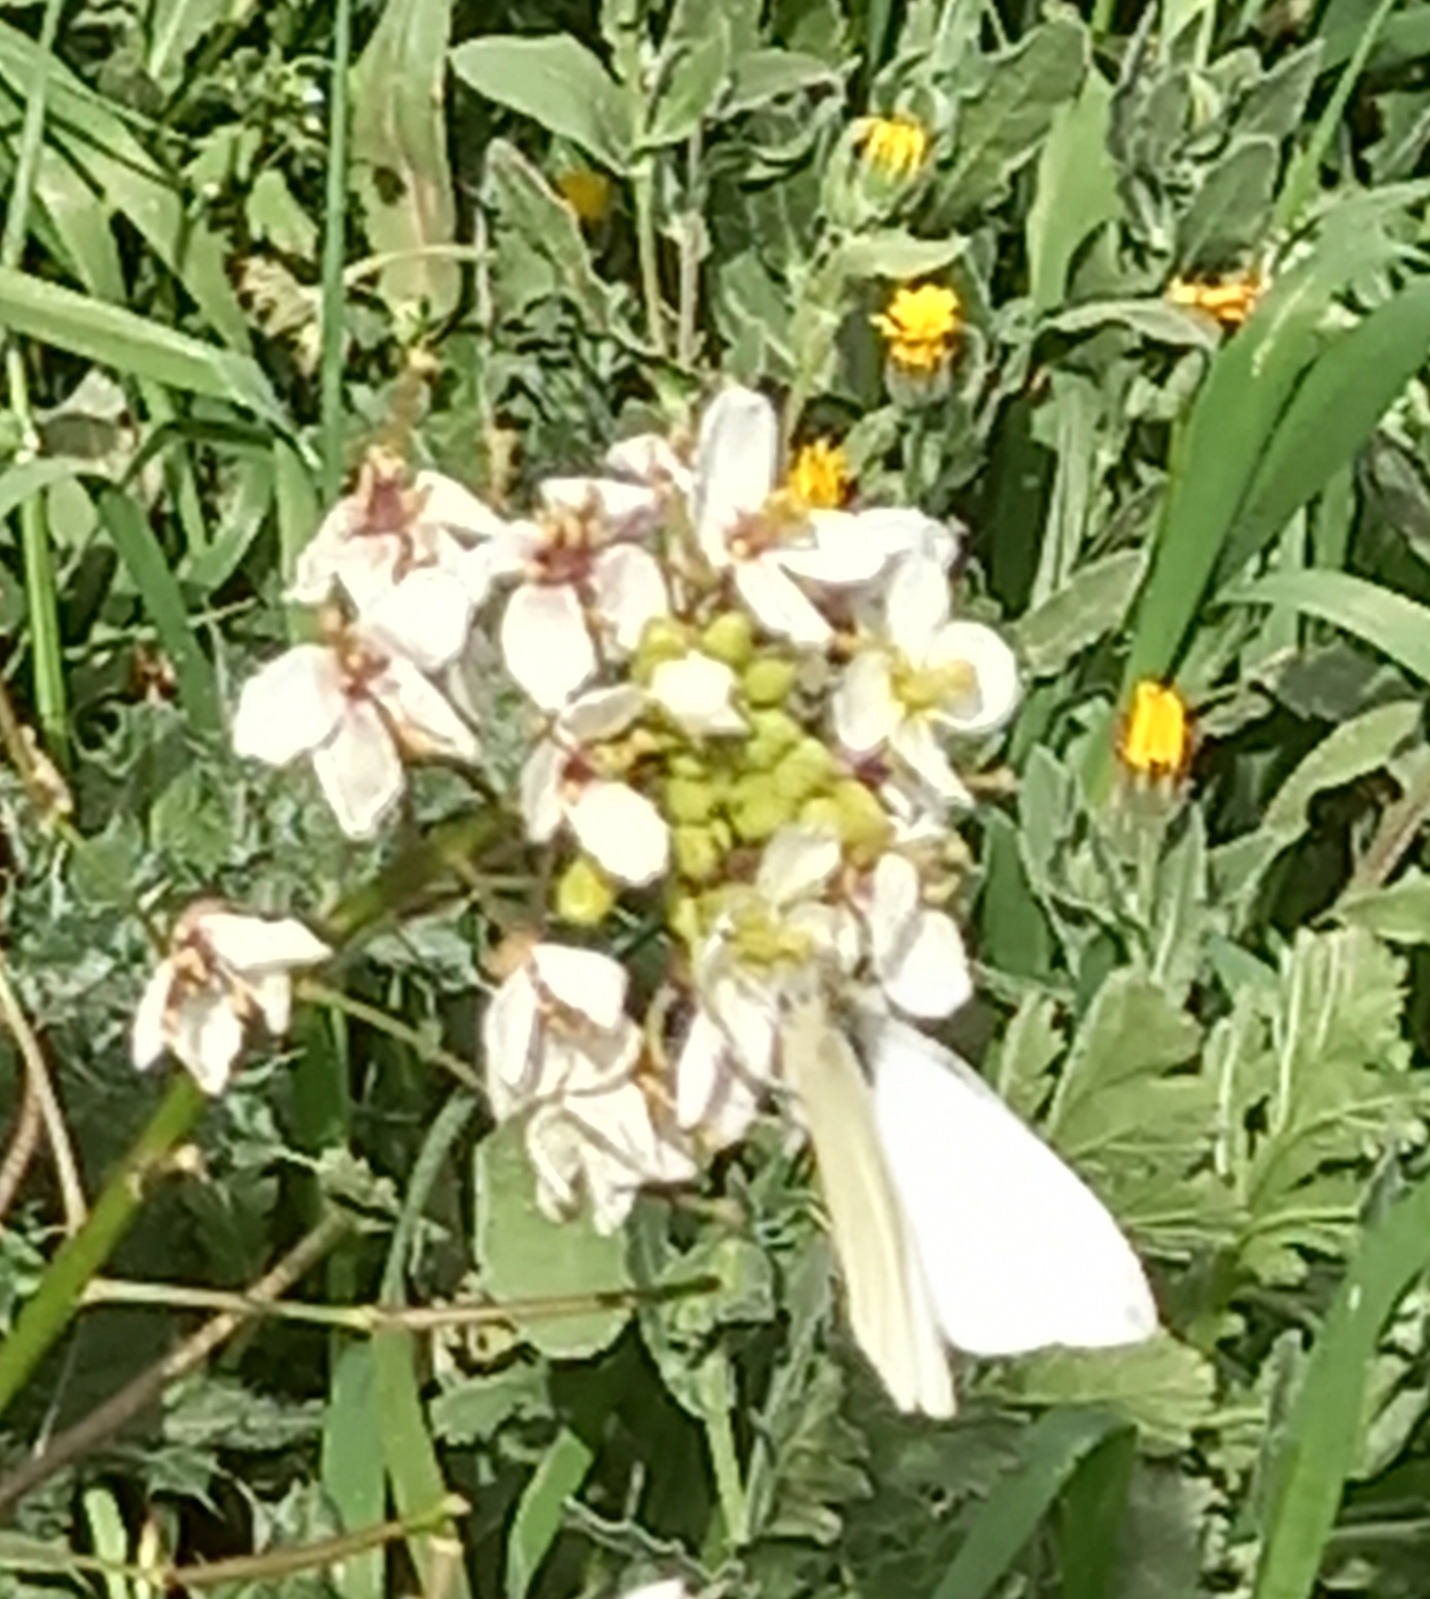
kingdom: Animalia
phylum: Arthropoda
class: Insecta
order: Lepidoptera
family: Pieridae
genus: Pieris
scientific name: Pieris rapae
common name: Small white
